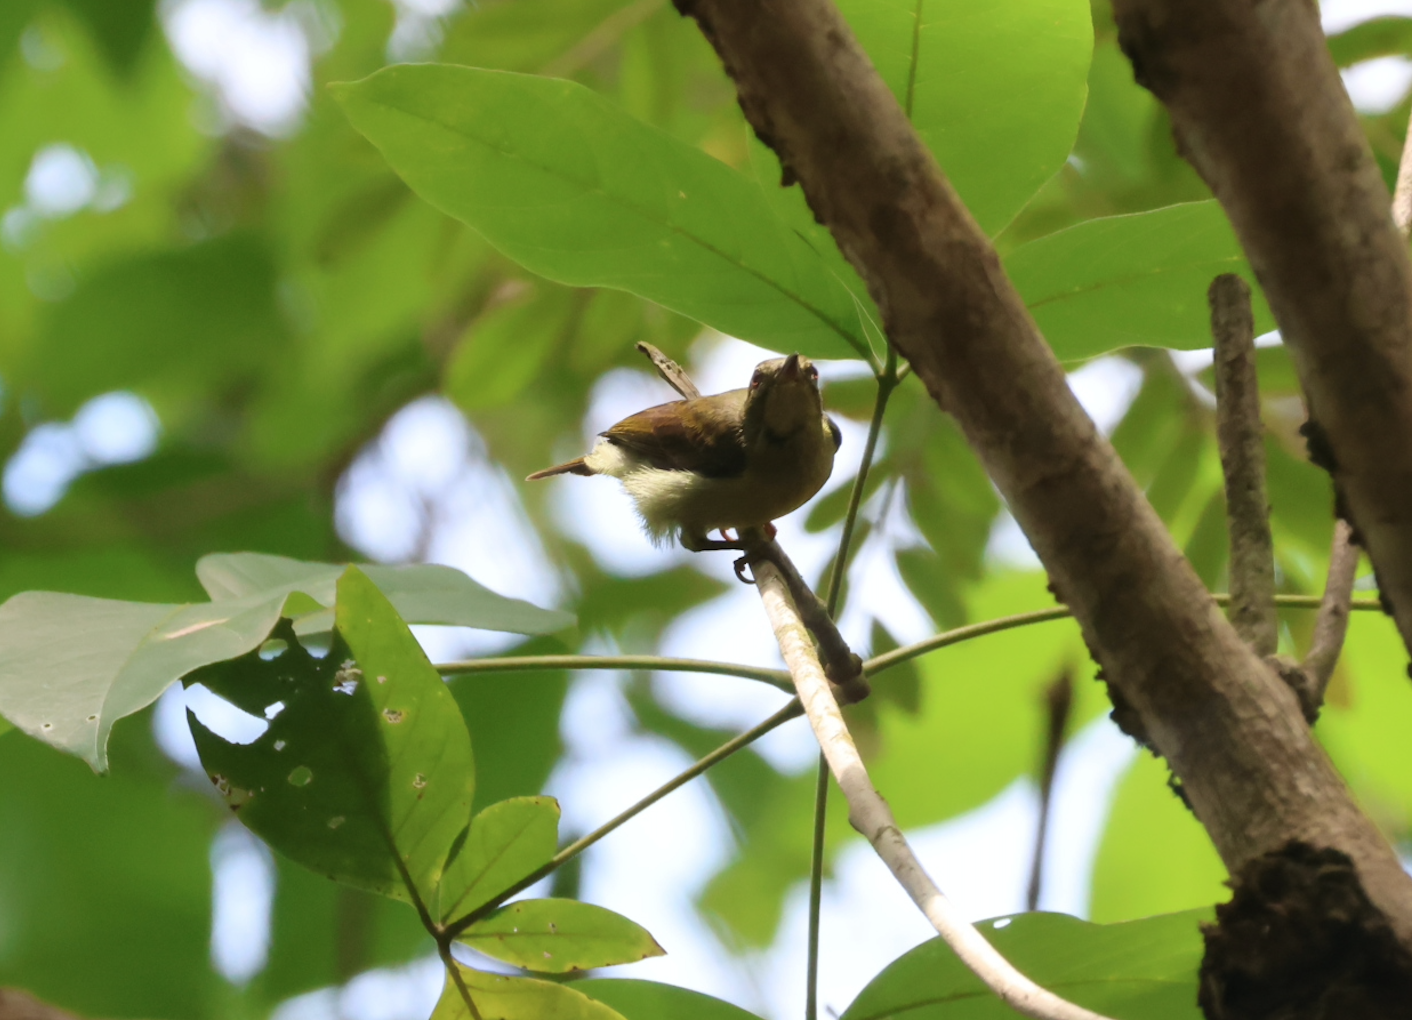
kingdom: Animalia
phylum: Chordata
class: Aves
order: Passeriformes
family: Nectariniidae
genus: Anthreptes
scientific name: Anthreptes simplex
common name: Plain sunbird
